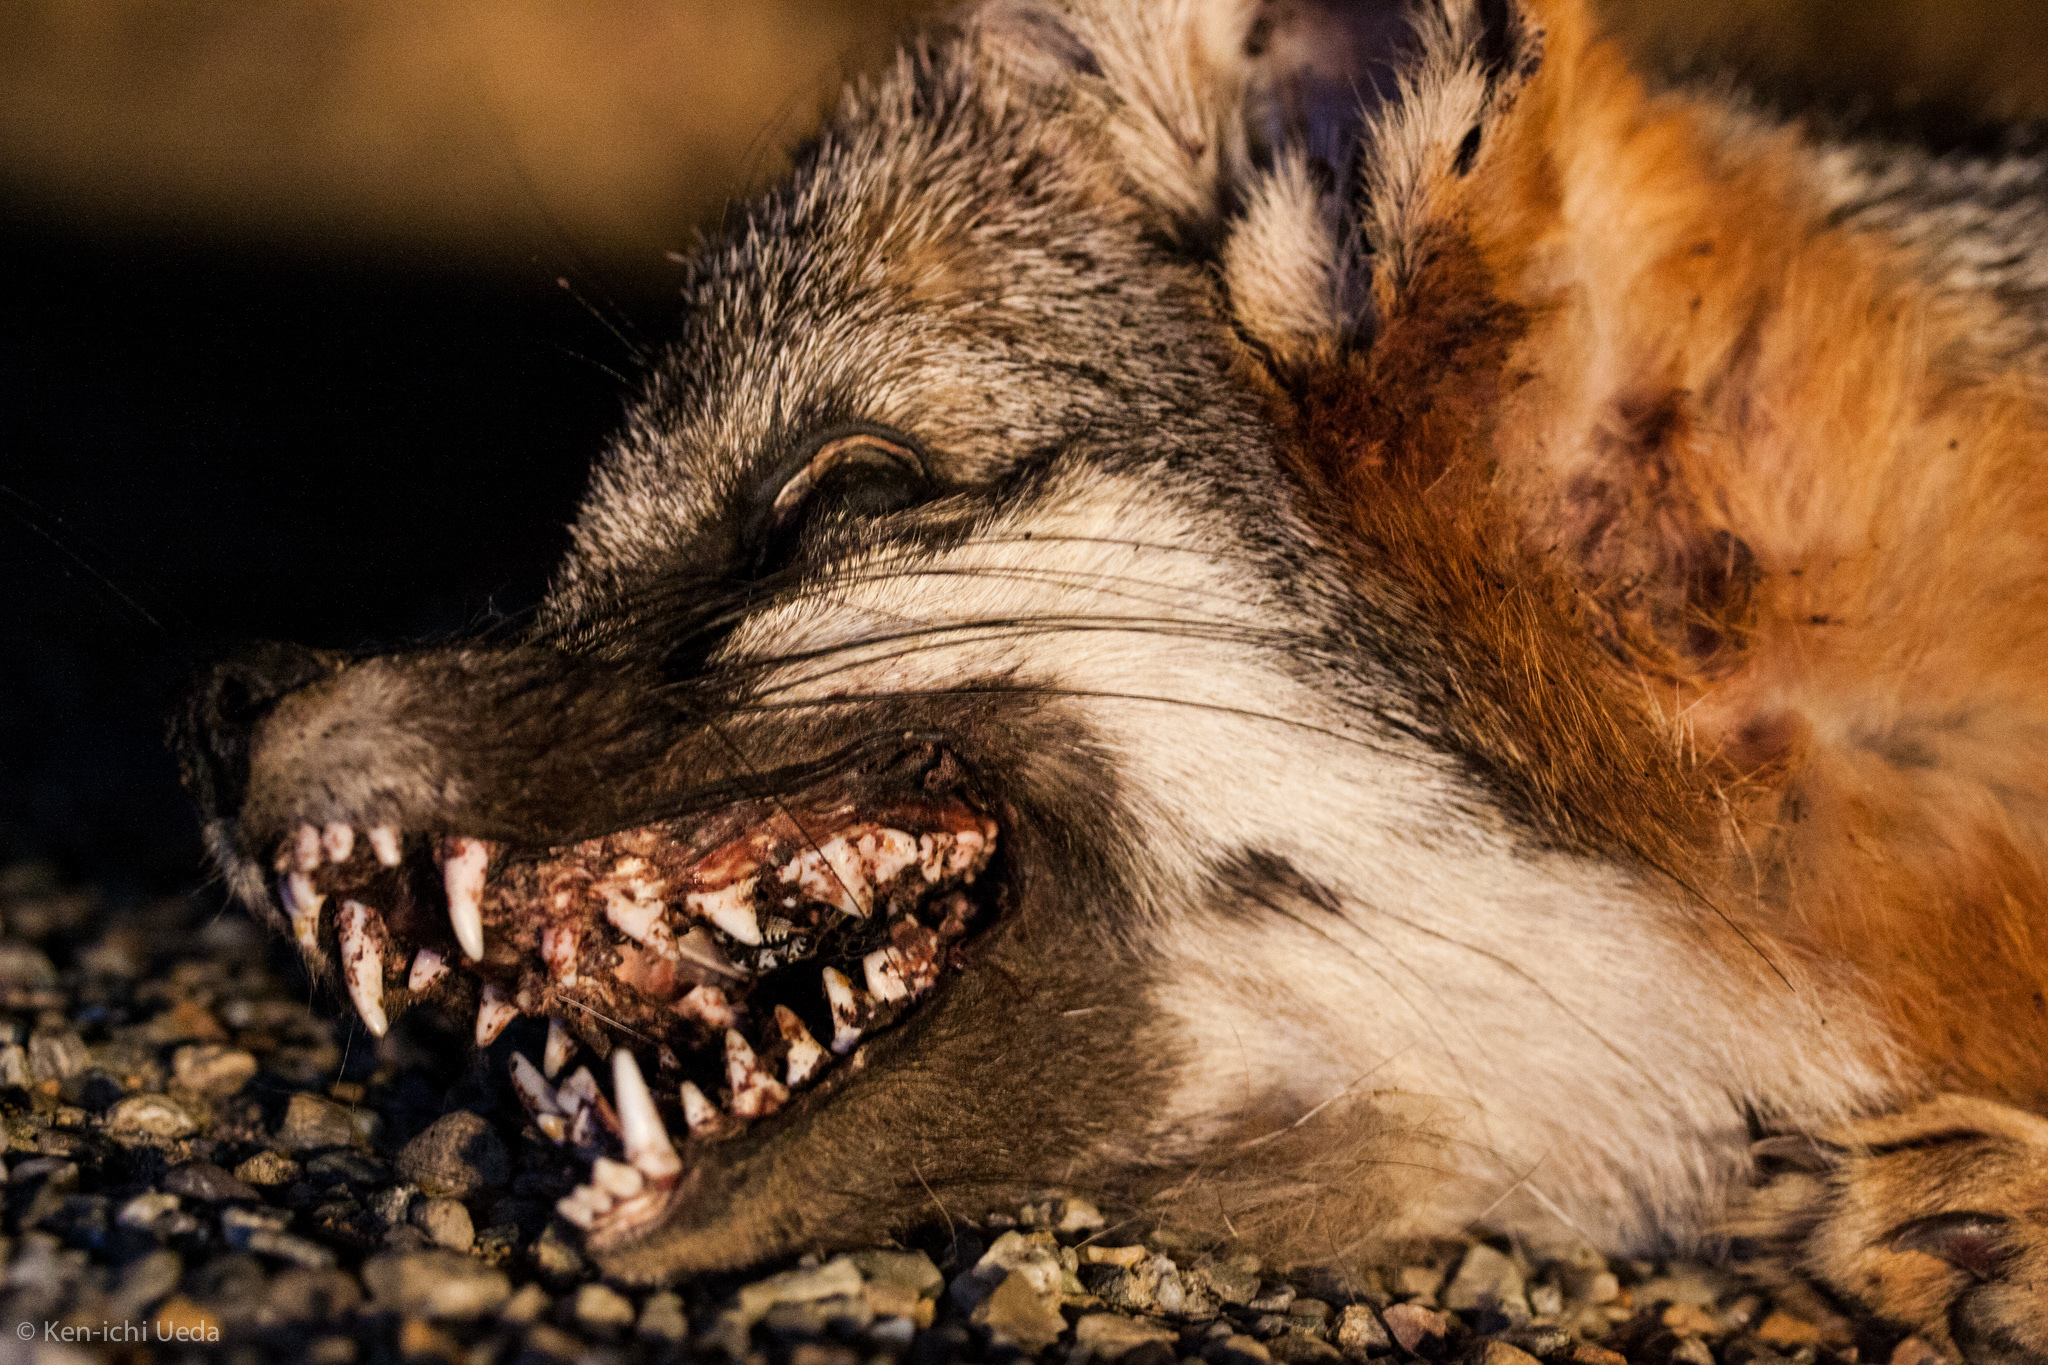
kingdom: Animalia
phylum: Chordata
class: Mammalia
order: Carnivora
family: Canidae
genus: Urocyon
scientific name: Urocyon cinereoargenteus
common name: Gray fox
